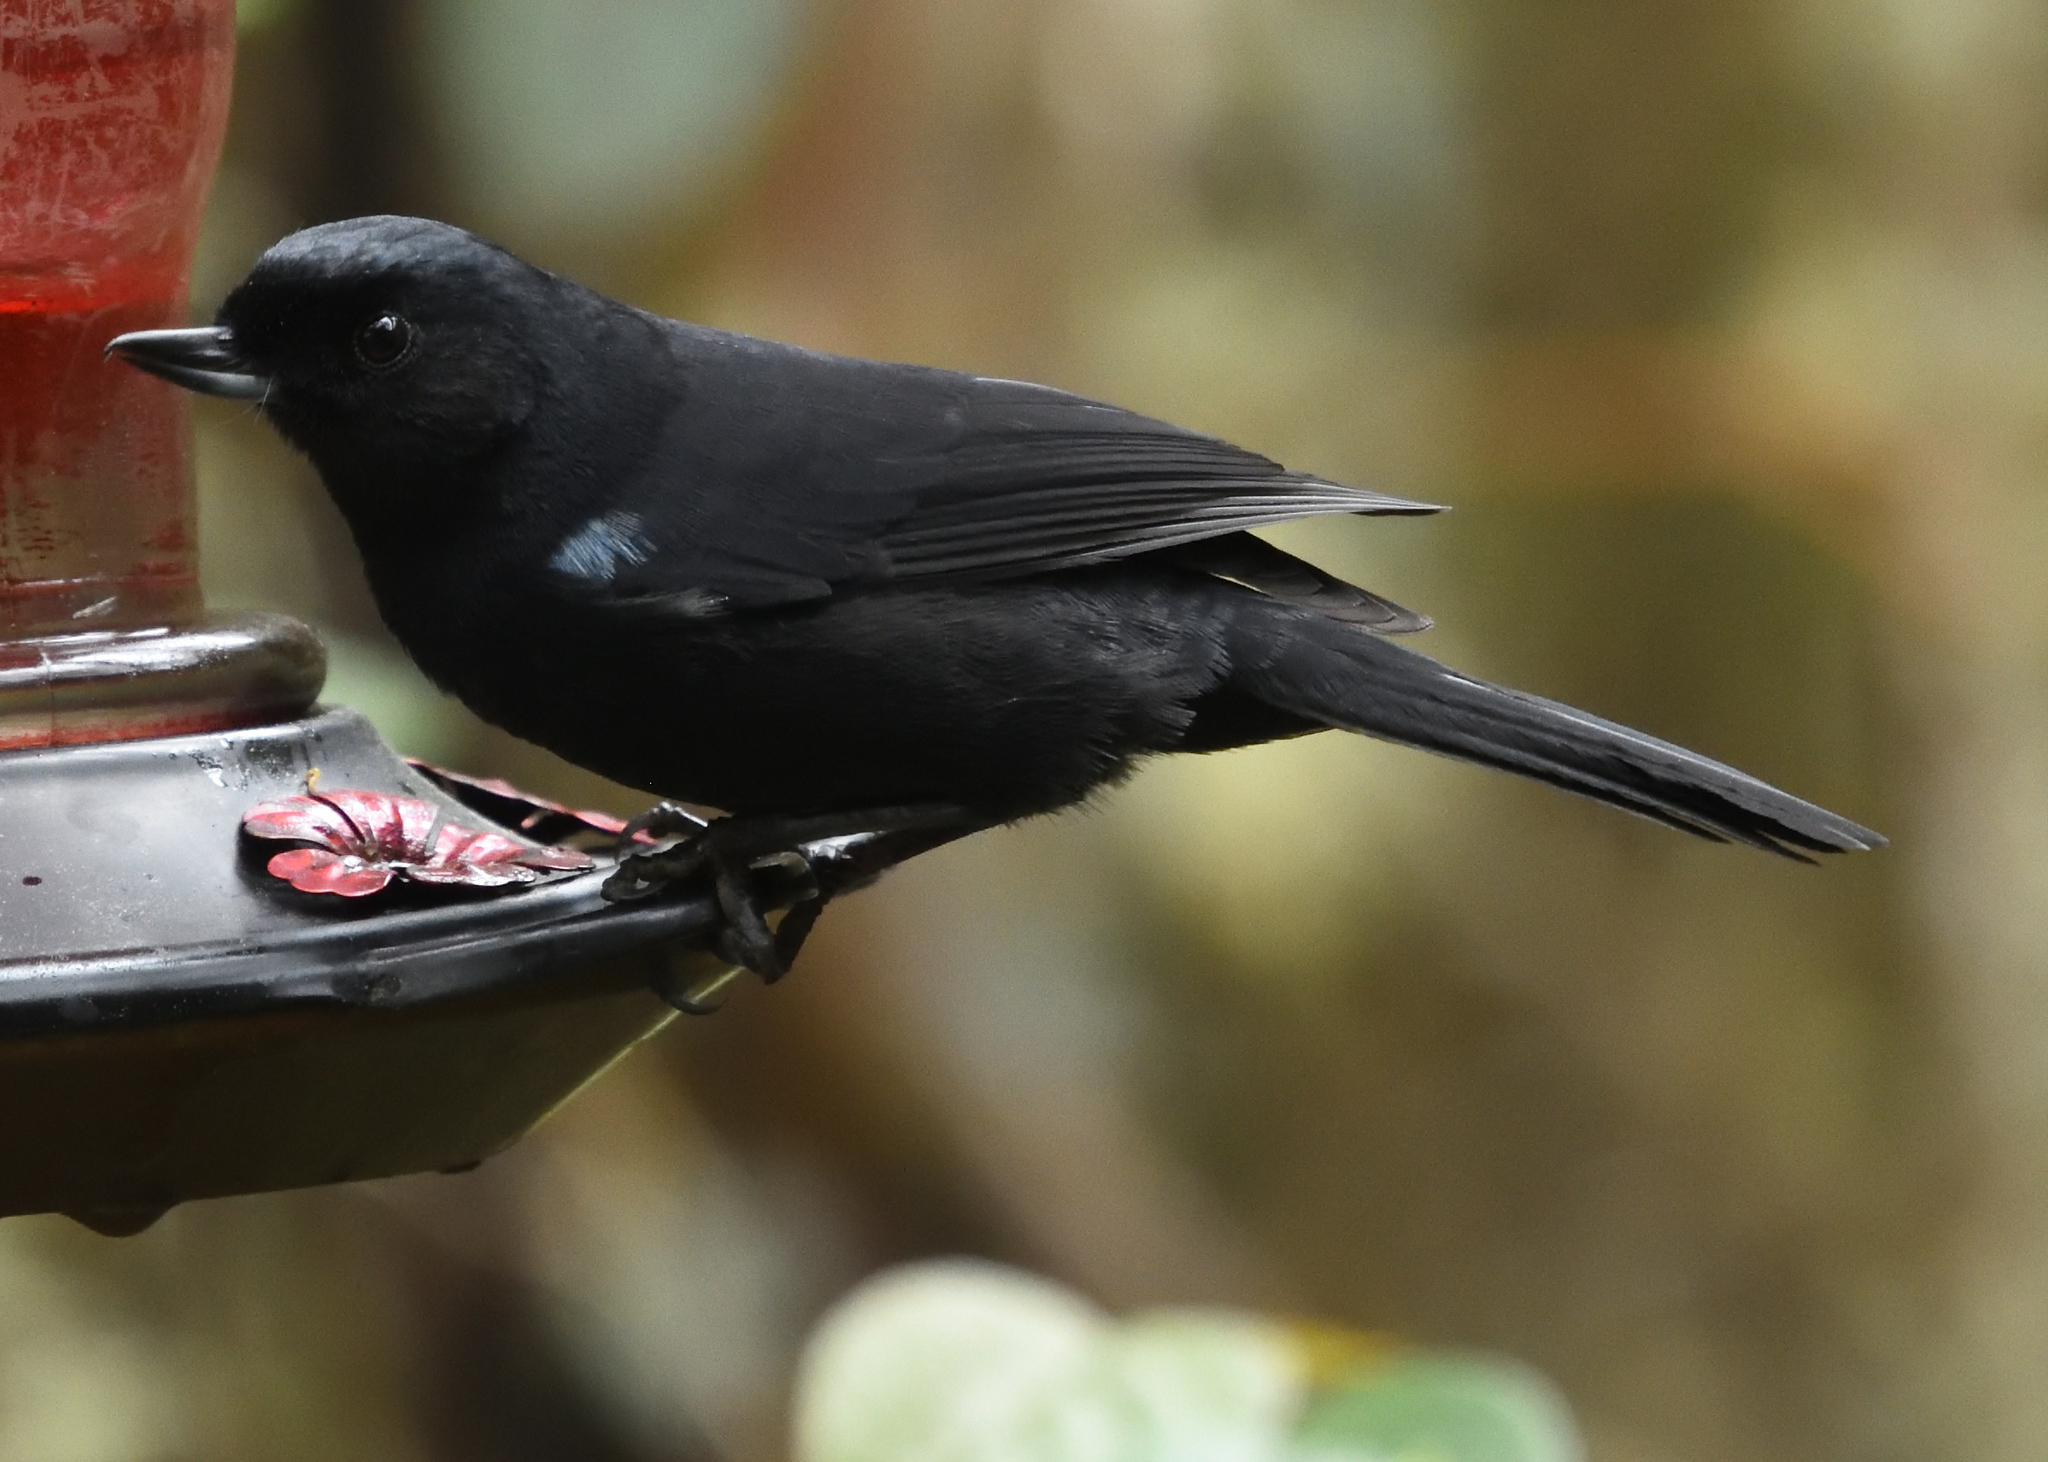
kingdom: Animalia
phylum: Chordata
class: Aves
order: Passeriformes
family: Thraupidae
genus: Diglossa
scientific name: Diglossa lafresnayii
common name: Glossy flowerpiercer
